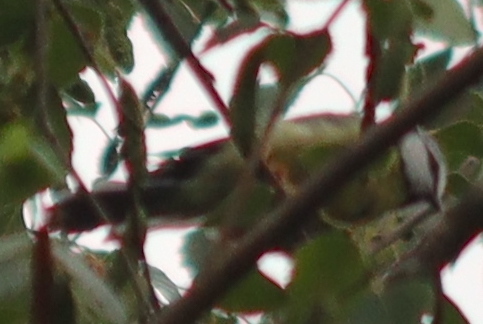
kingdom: Animalia
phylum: Chordata
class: Aves
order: Passeriformes
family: Paridae
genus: Cyanistes
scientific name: Cyanistes caeruleus
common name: Eurasian blue tit
